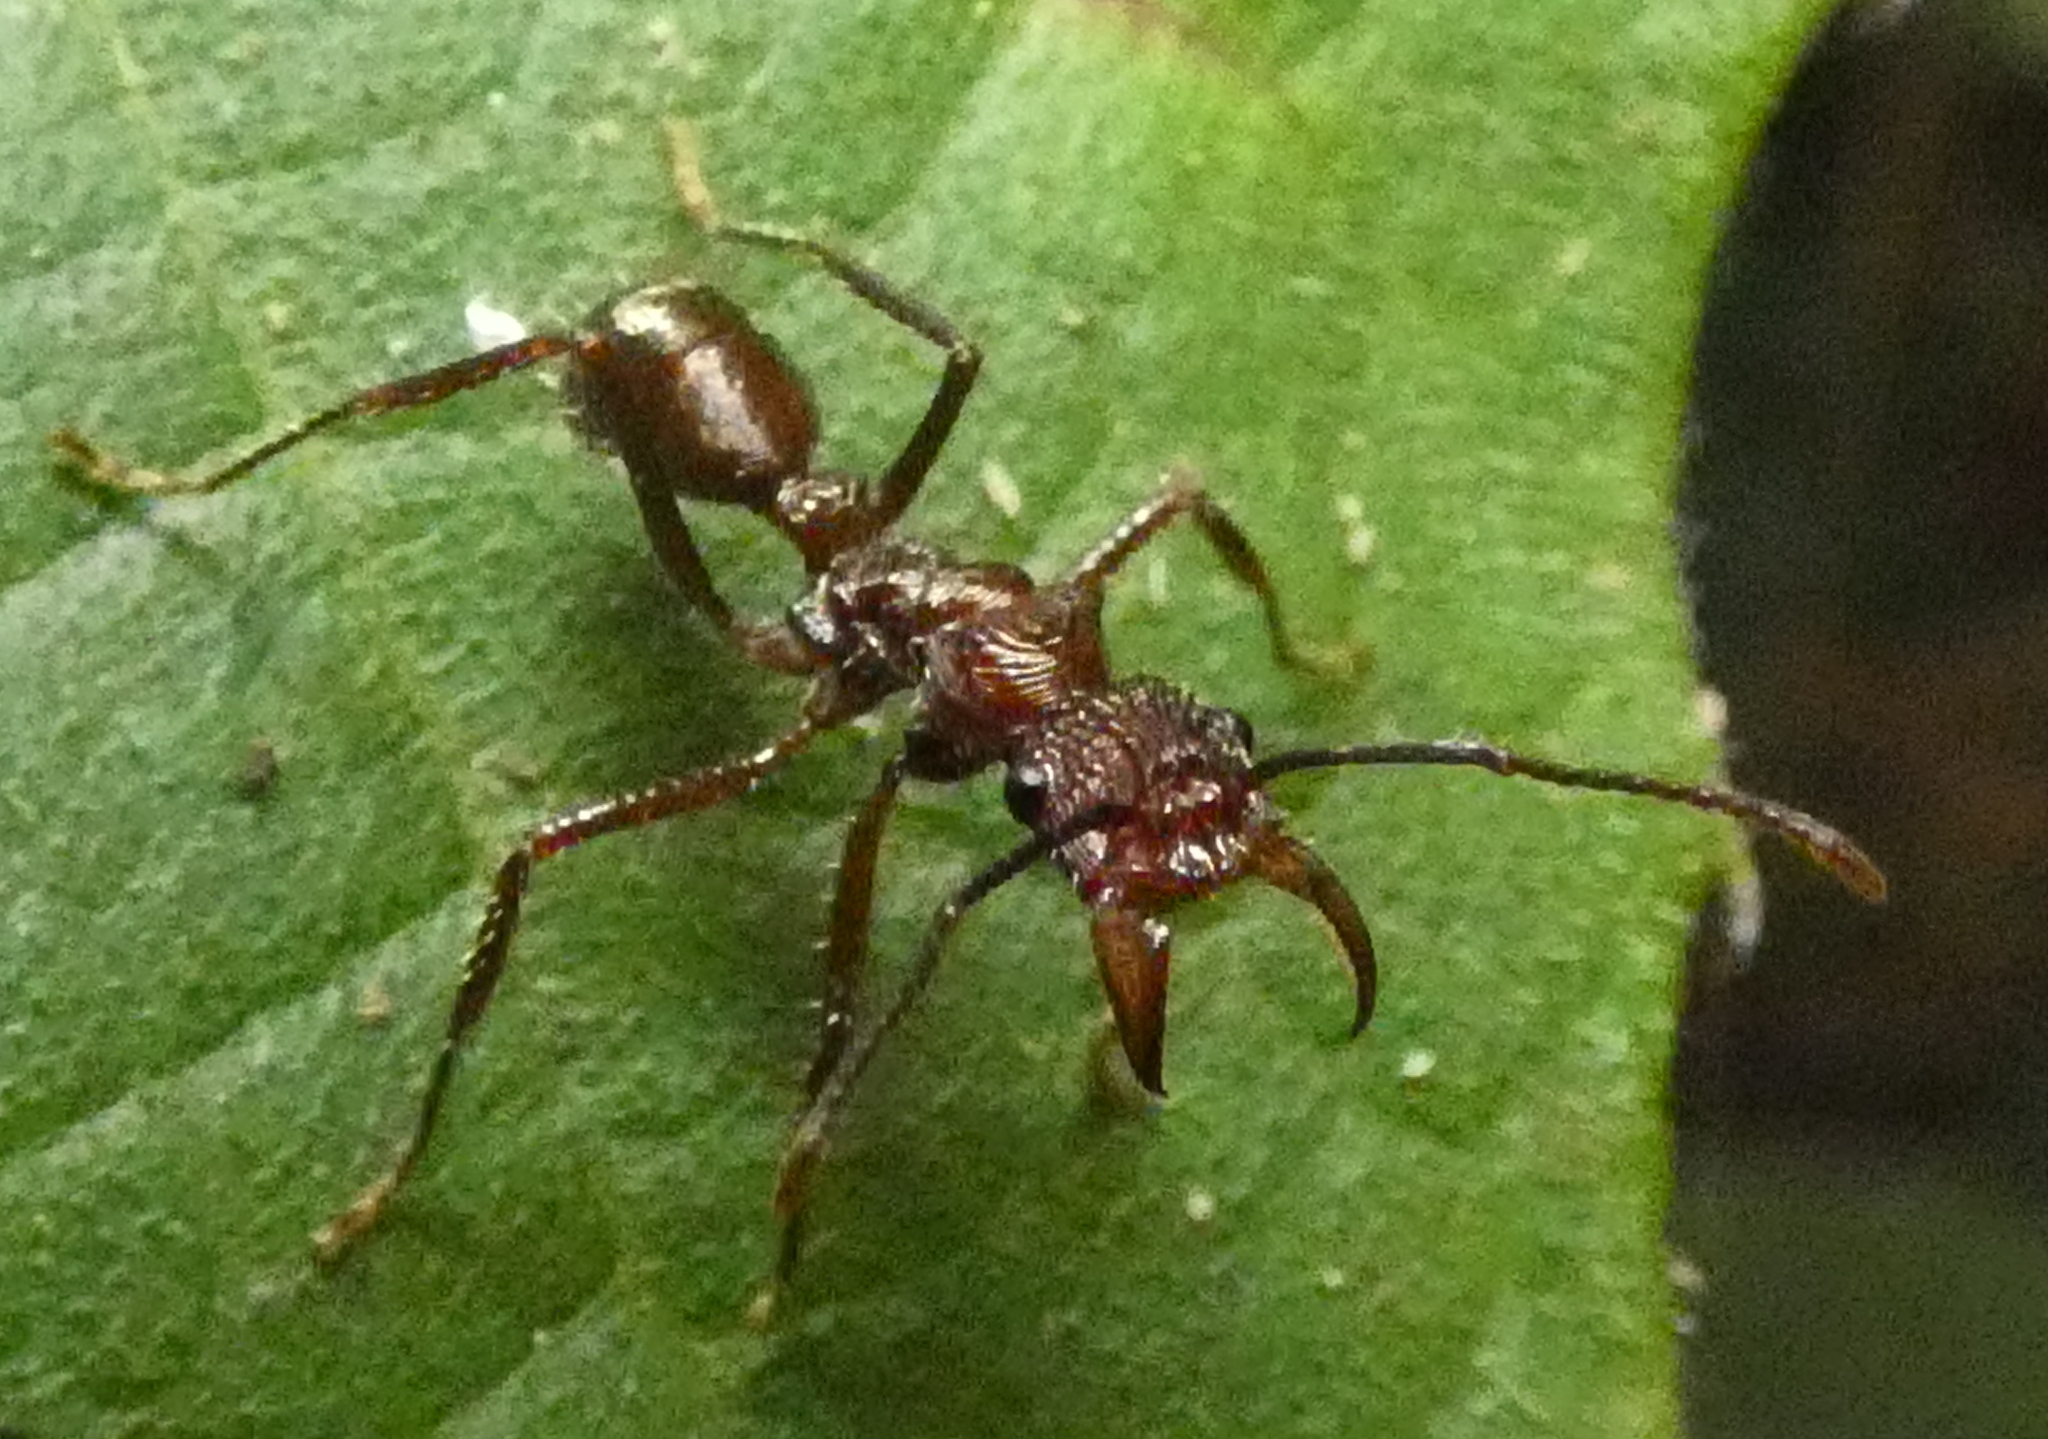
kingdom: Animalia
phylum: Arthropoda
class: Insecta
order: Hymenoptera
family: Formicidae
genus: Ectatomma
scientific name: Ectatomma tuberculatum
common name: Ant
